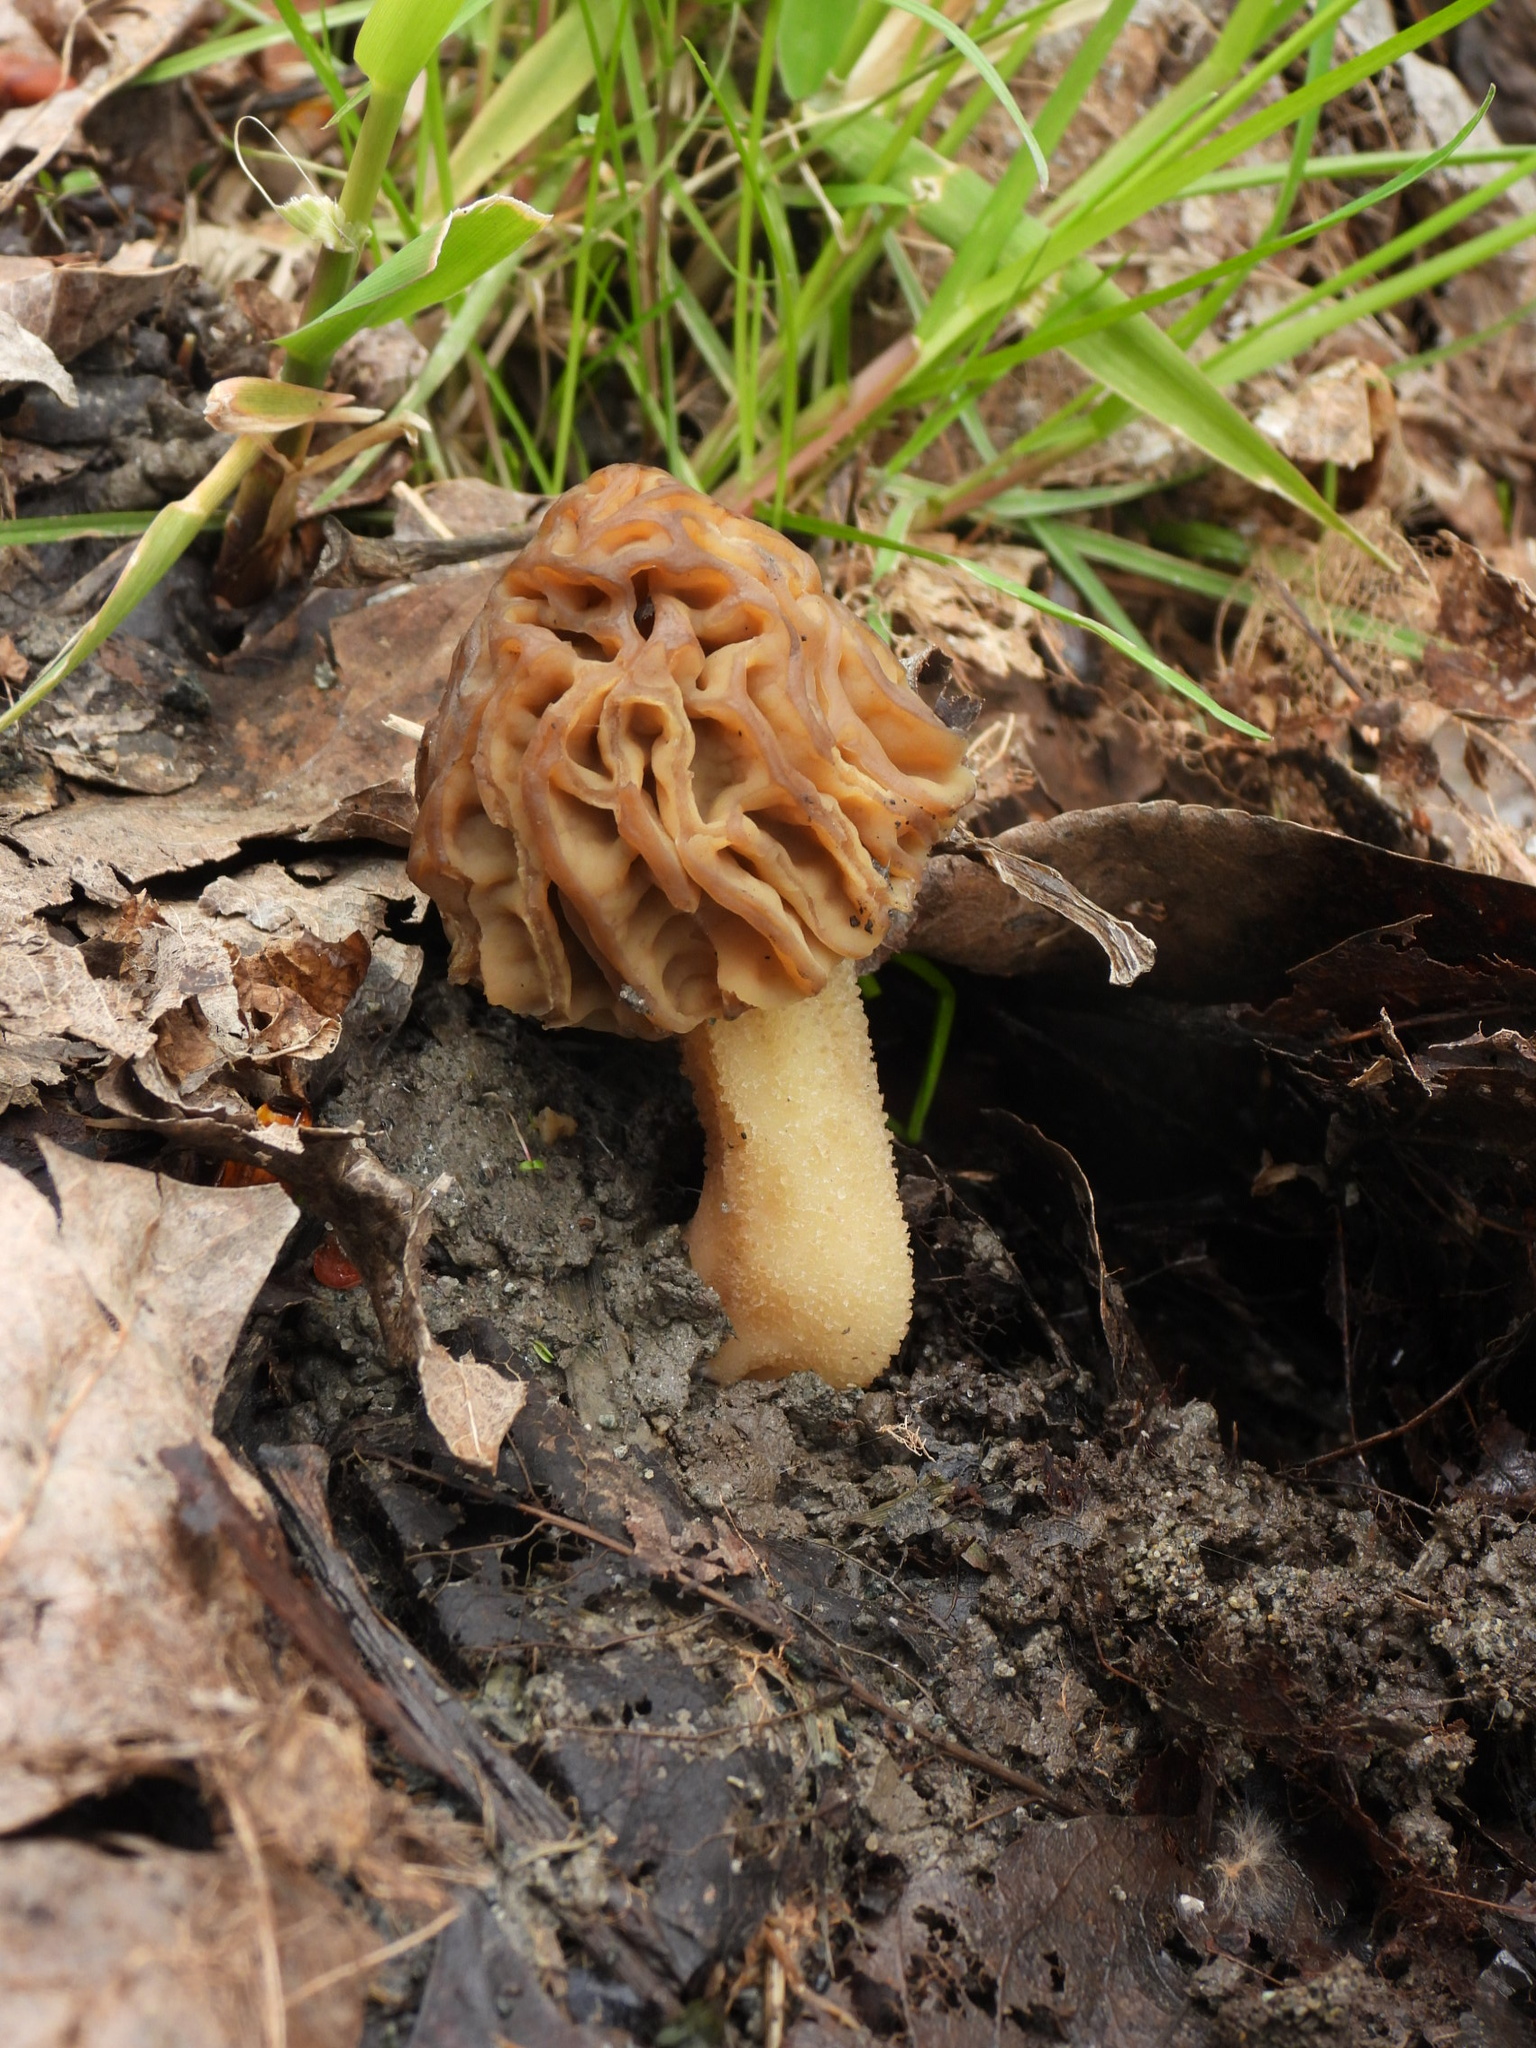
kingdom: Fungi
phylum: Ascomycota
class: Pezizomycetes
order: Pezizales
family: Morchellaceae
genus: Morchella
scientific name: Morchella populiphila
